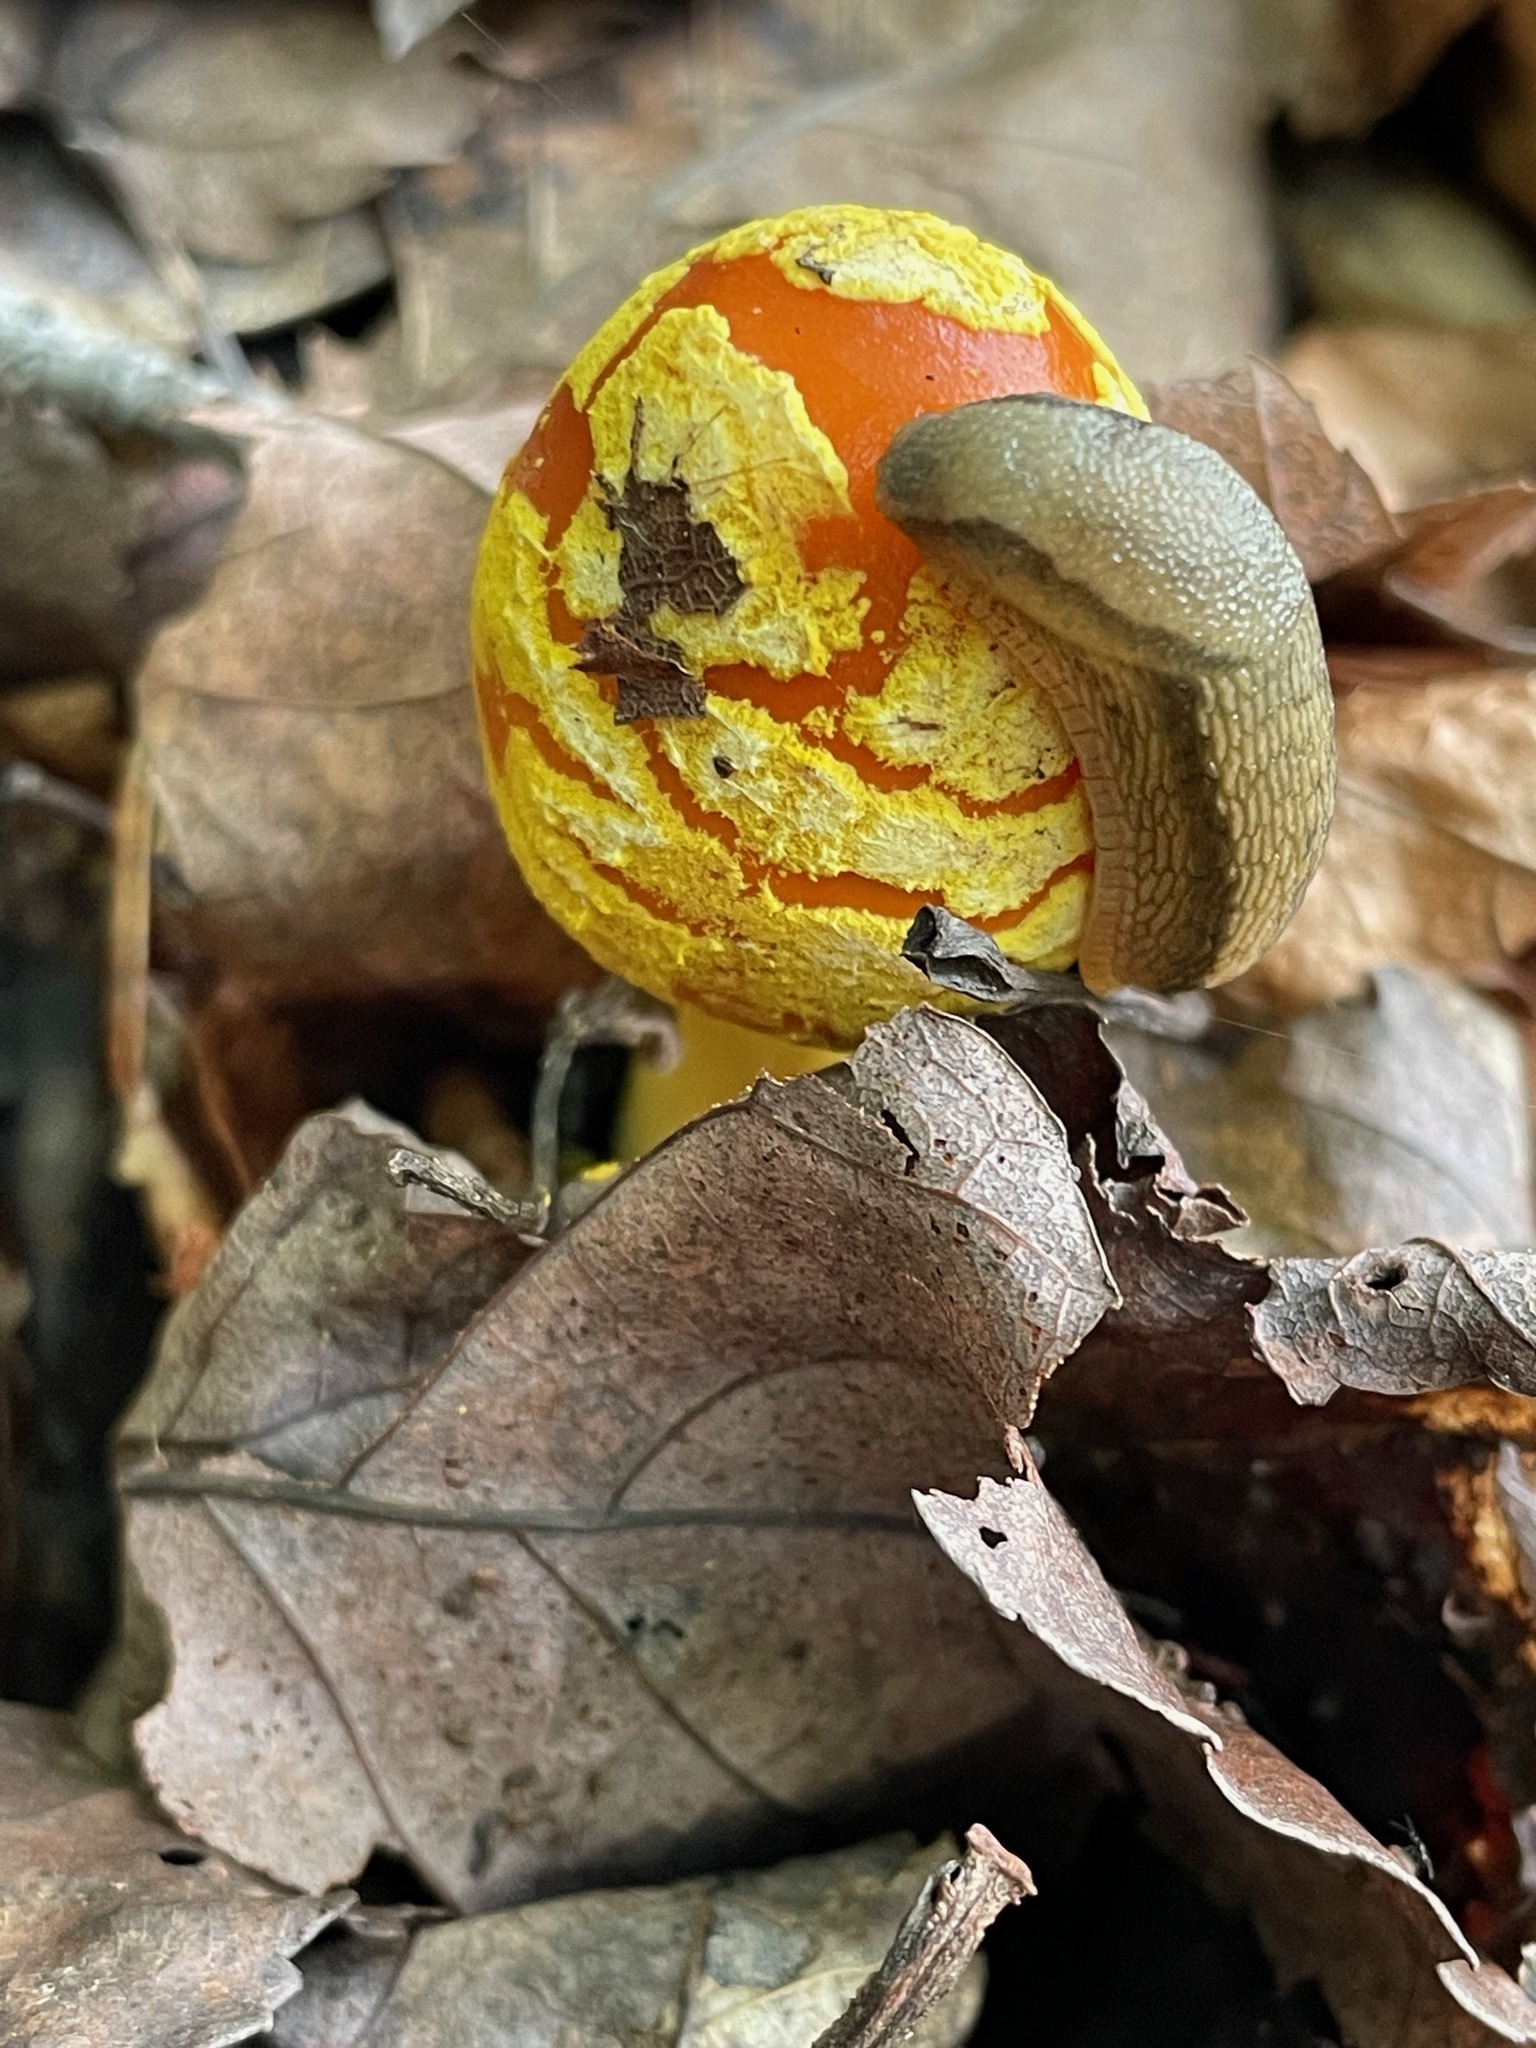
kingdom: Fungi
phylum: Basidiomycota
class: Agaricomycetes
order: Agaricales
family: Amanitaceae
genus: Amanita
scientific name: Amanita flavoconia
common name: Yellow patches
